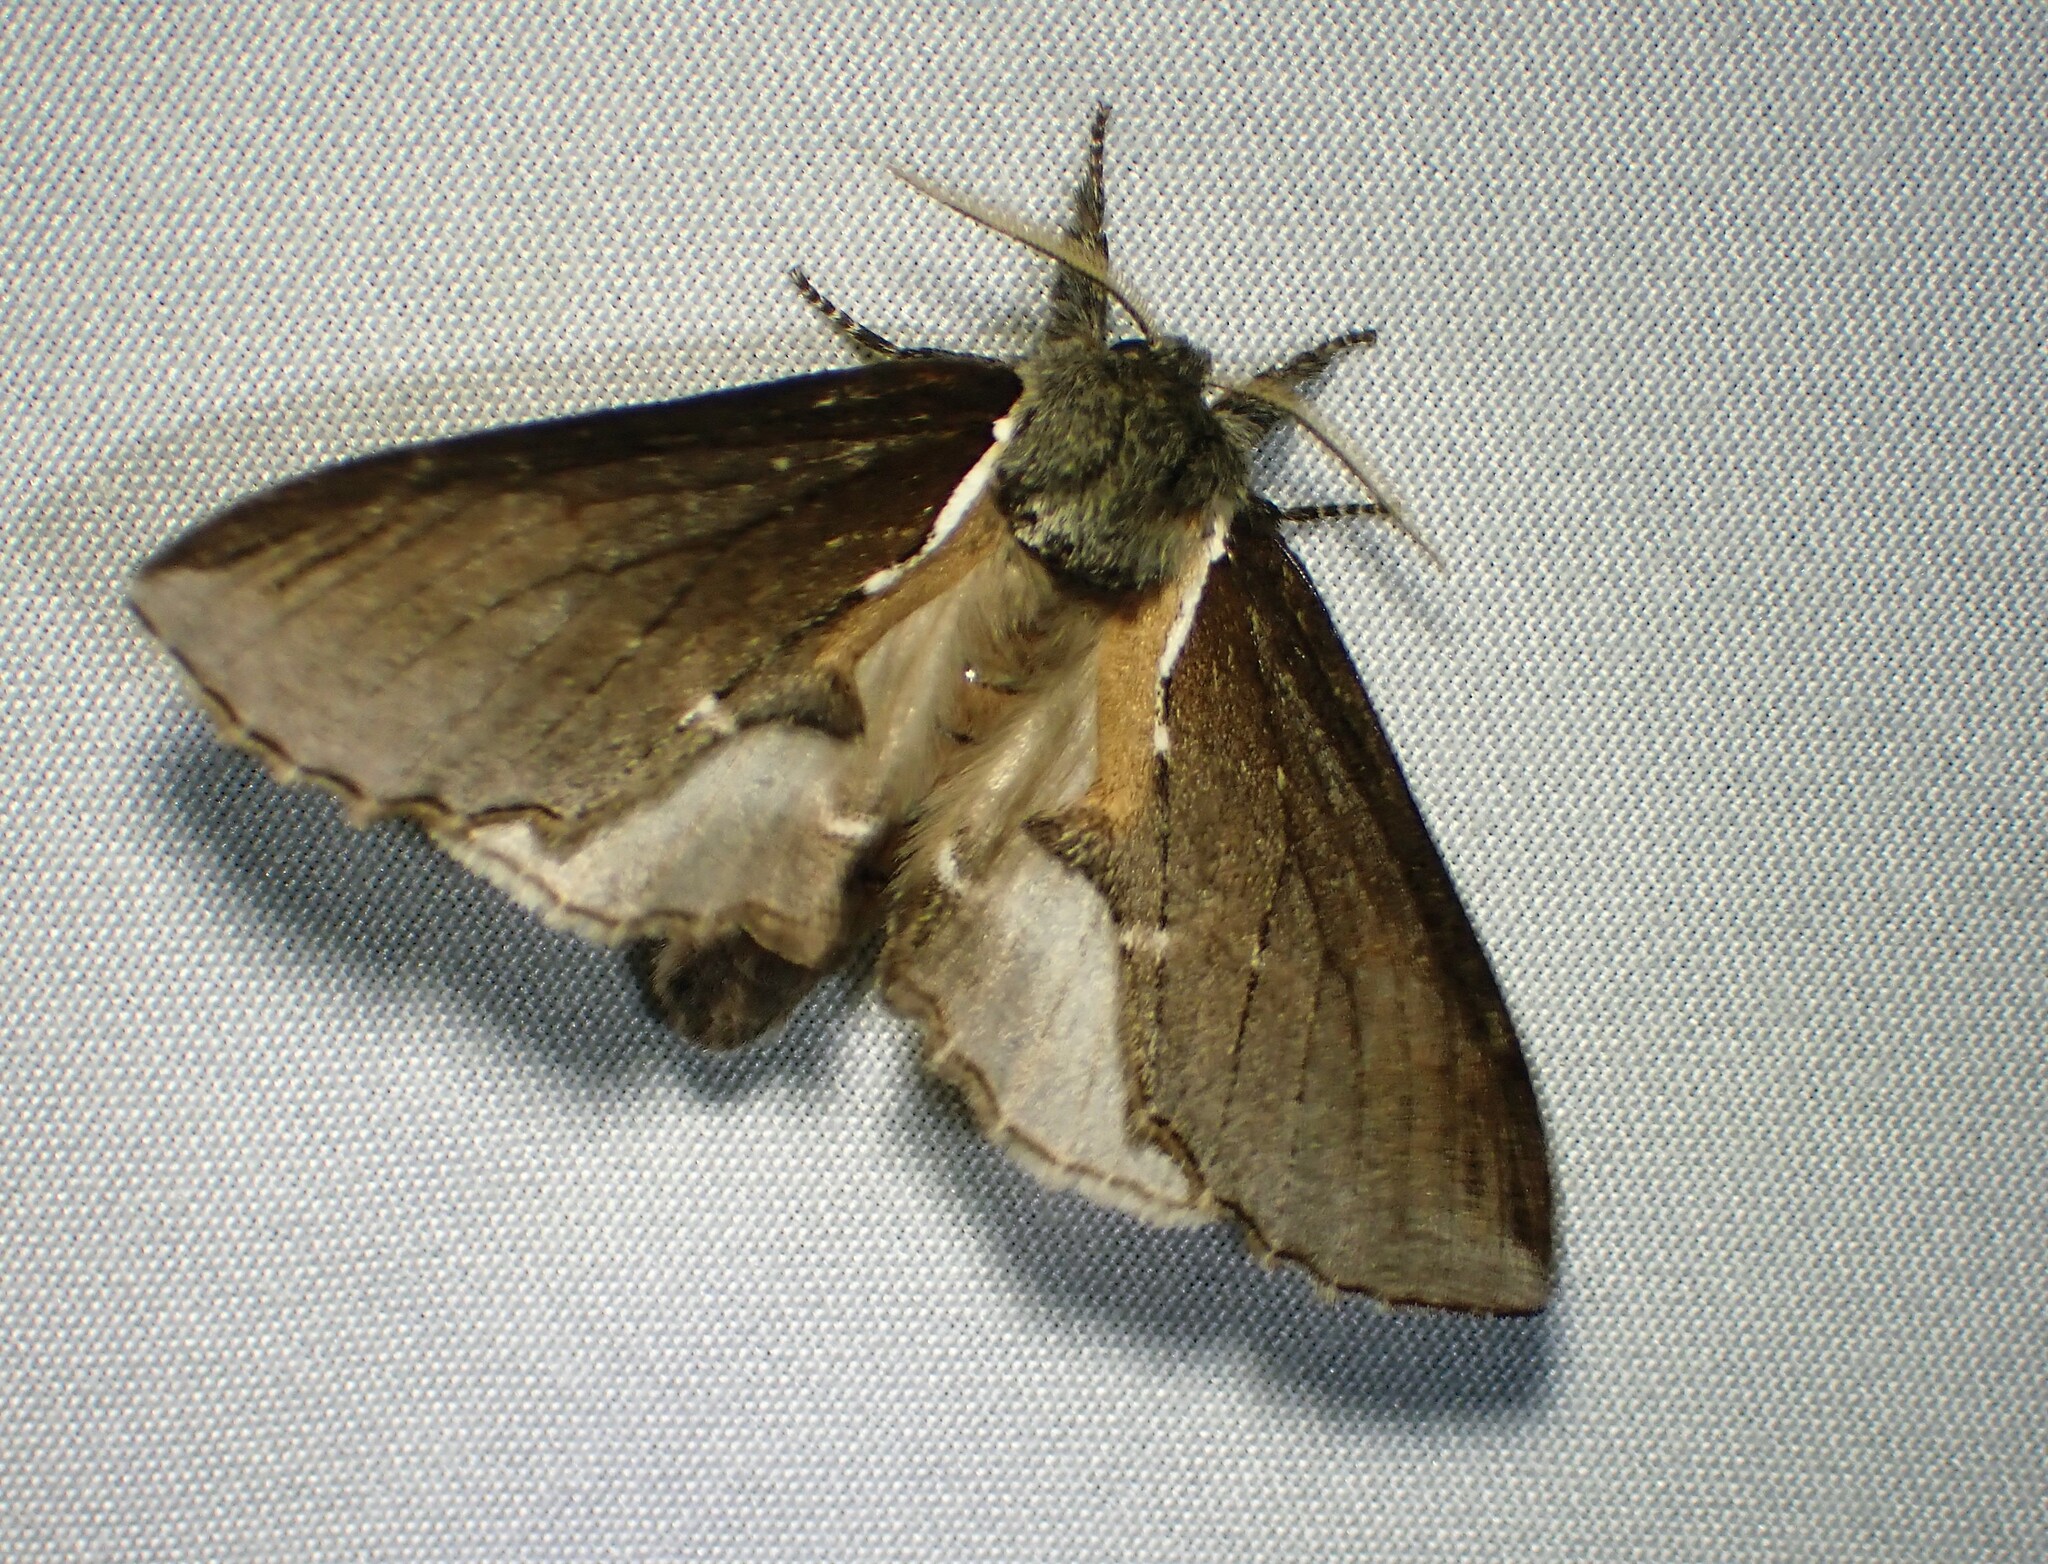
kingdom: Animalia
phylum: Arthropoda
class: Insecta
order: Lepidoptera
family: Notodontidae
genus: Pheosidea
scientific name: Pheosidea elegans
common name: Elegant prominent
